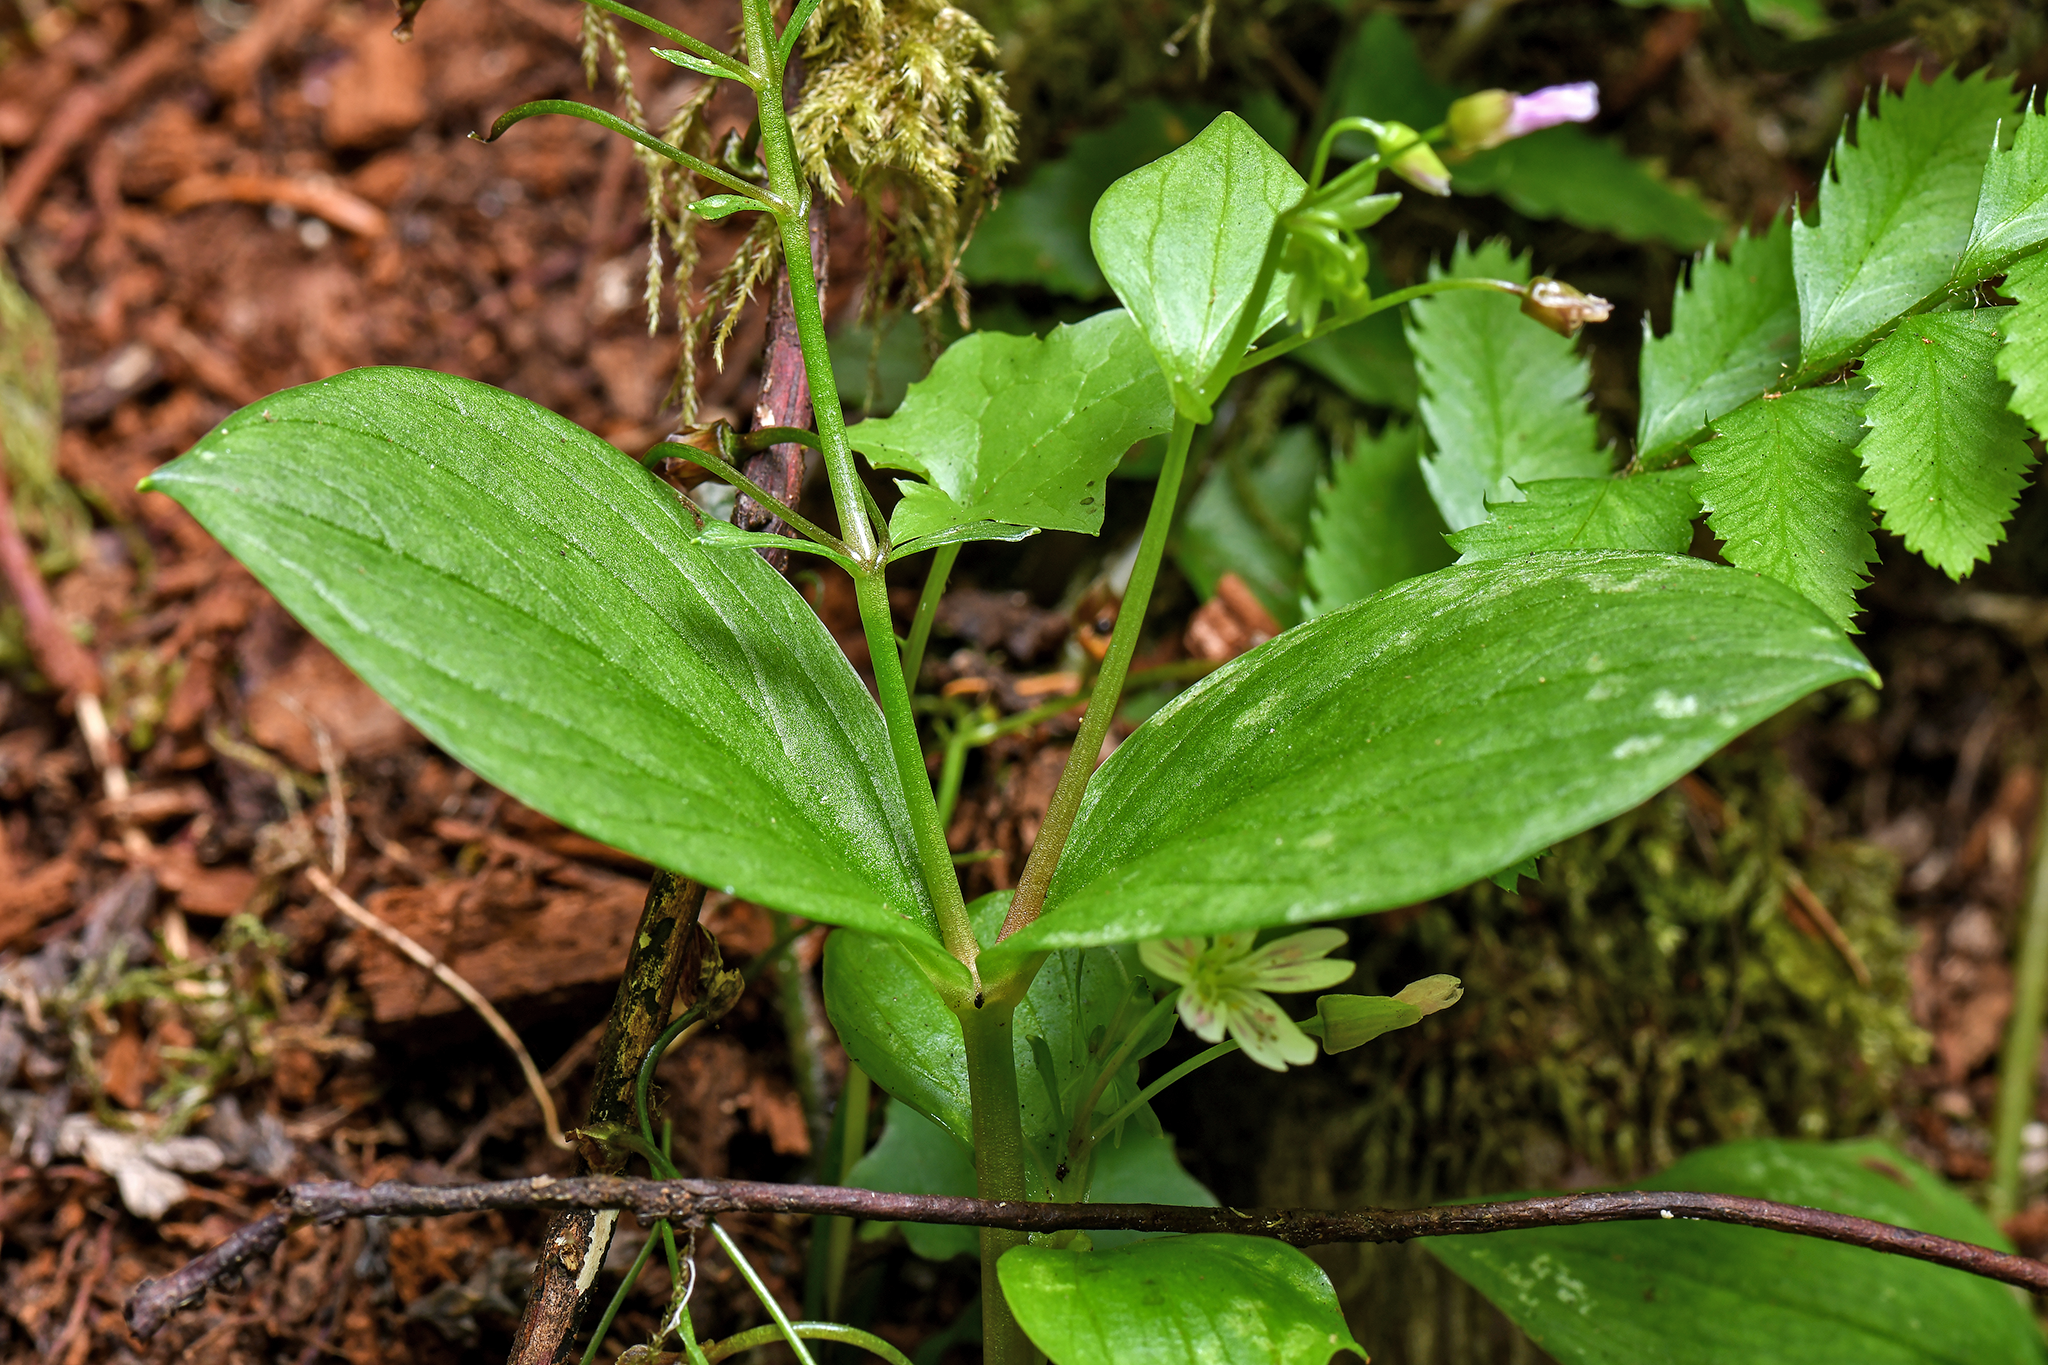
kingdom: Plantae
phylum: Tracheophyta
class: Magnoliopsida
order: Caryophyllales
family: Montiaceae
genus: Claytonia
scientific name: Claytonia sibirica
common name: Pink purslane
